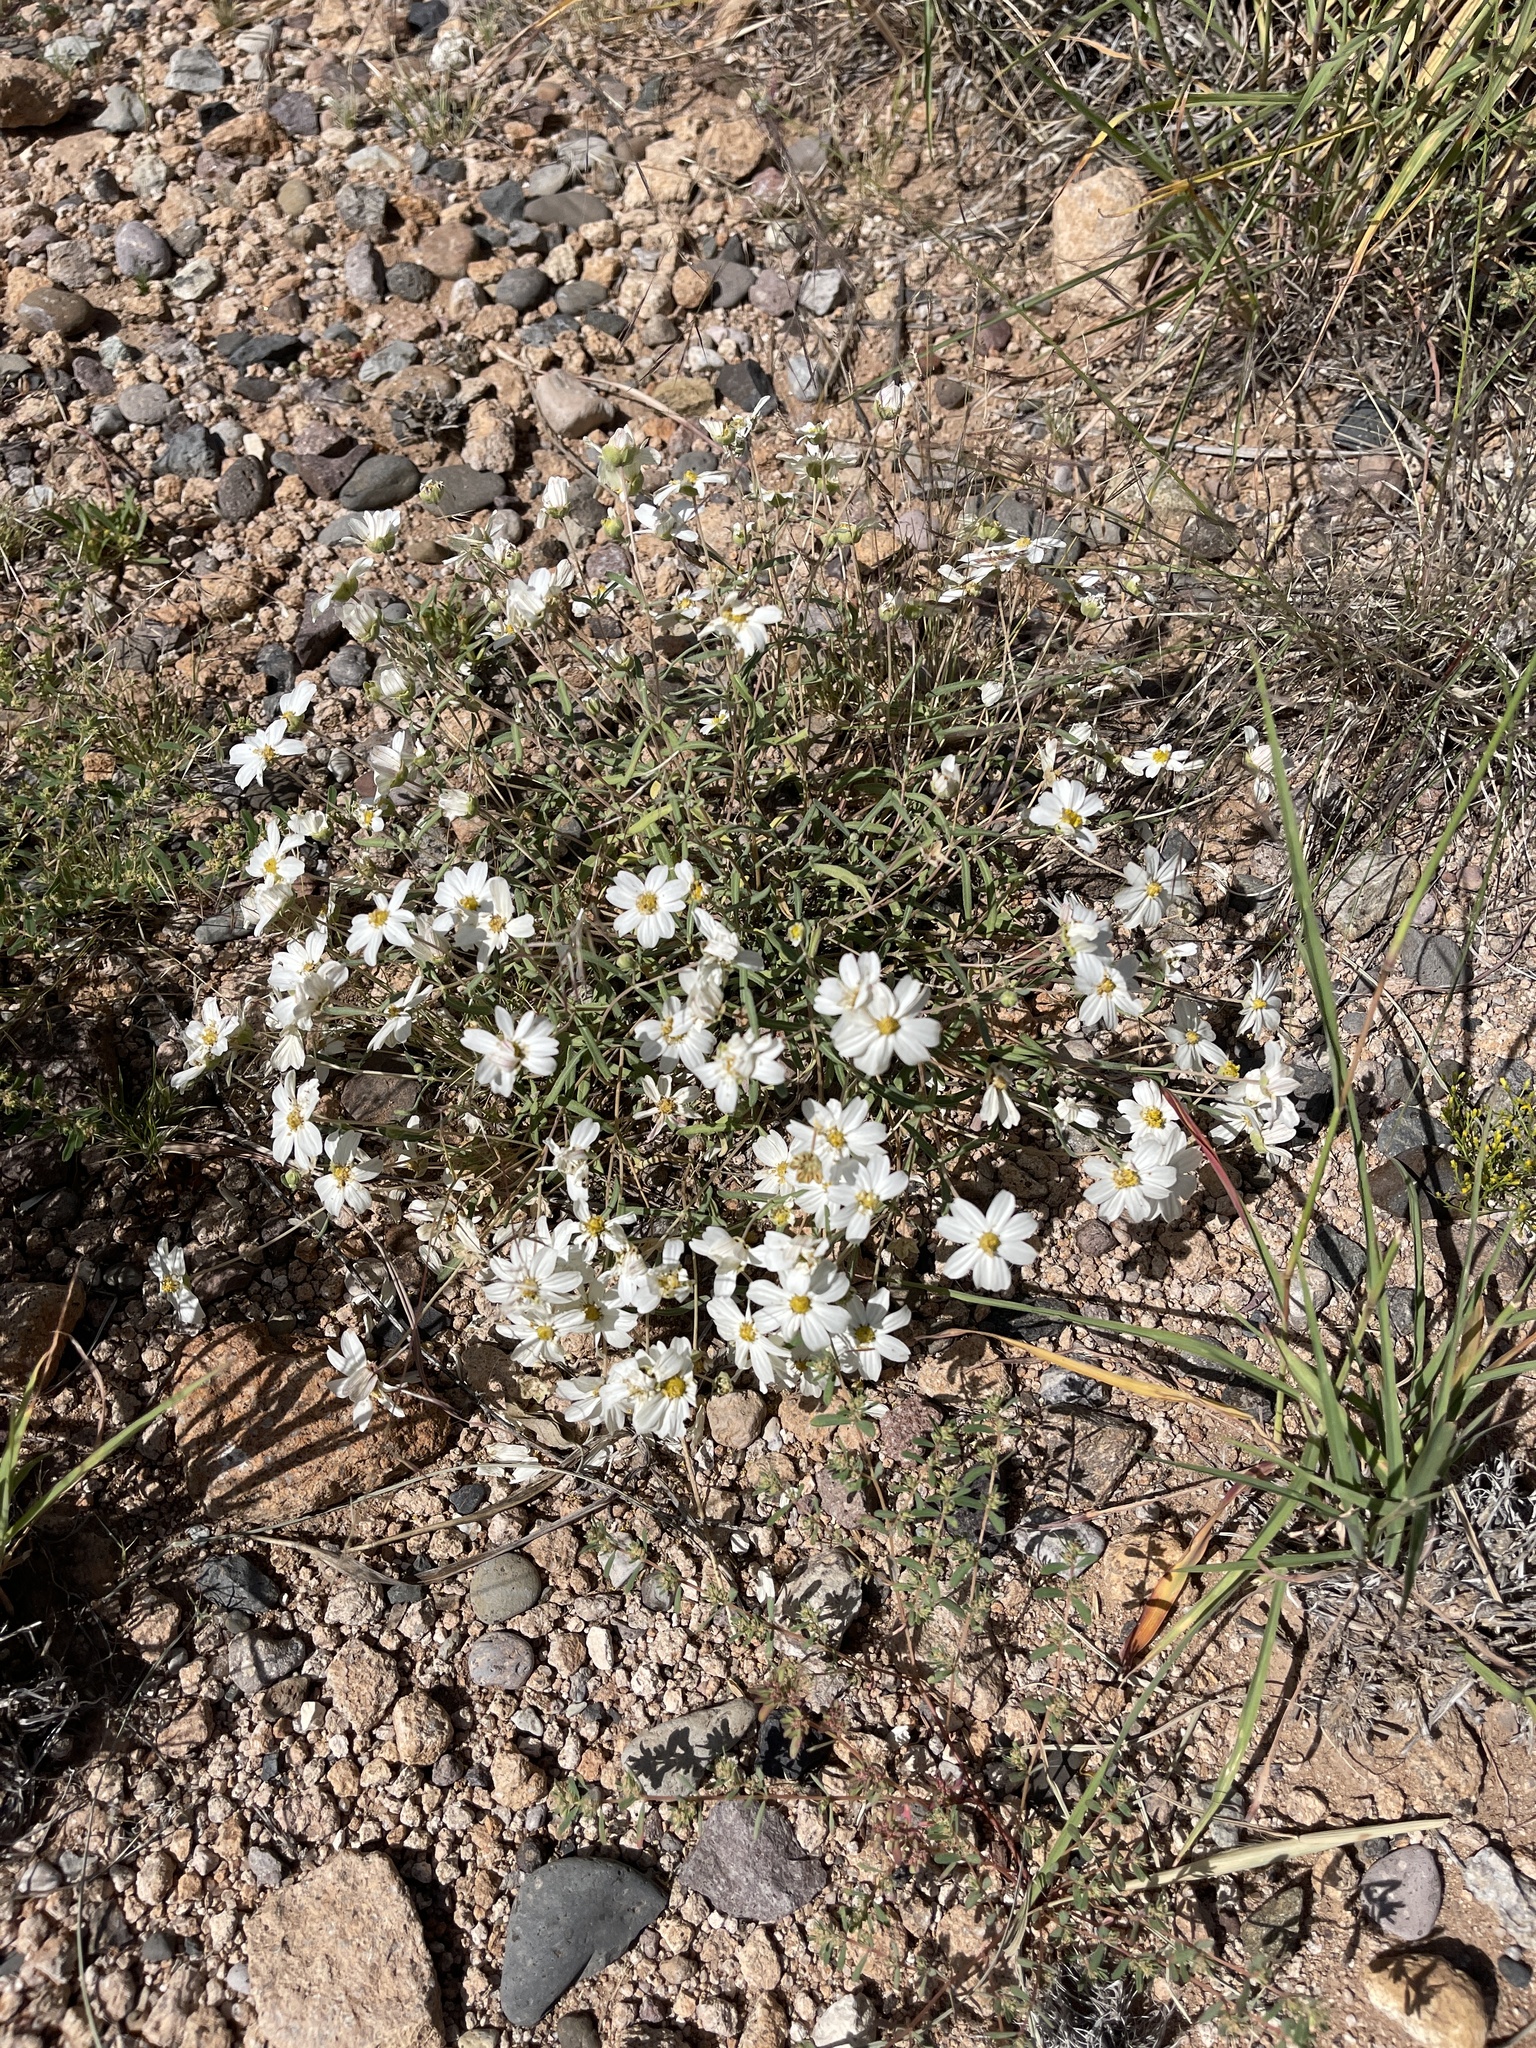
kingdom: Plantae
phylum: Tracheophyta
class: Magnoliopsida
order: Asterales
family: Asteraceae
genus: Melampodium
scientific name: Melampodium leucanthum
